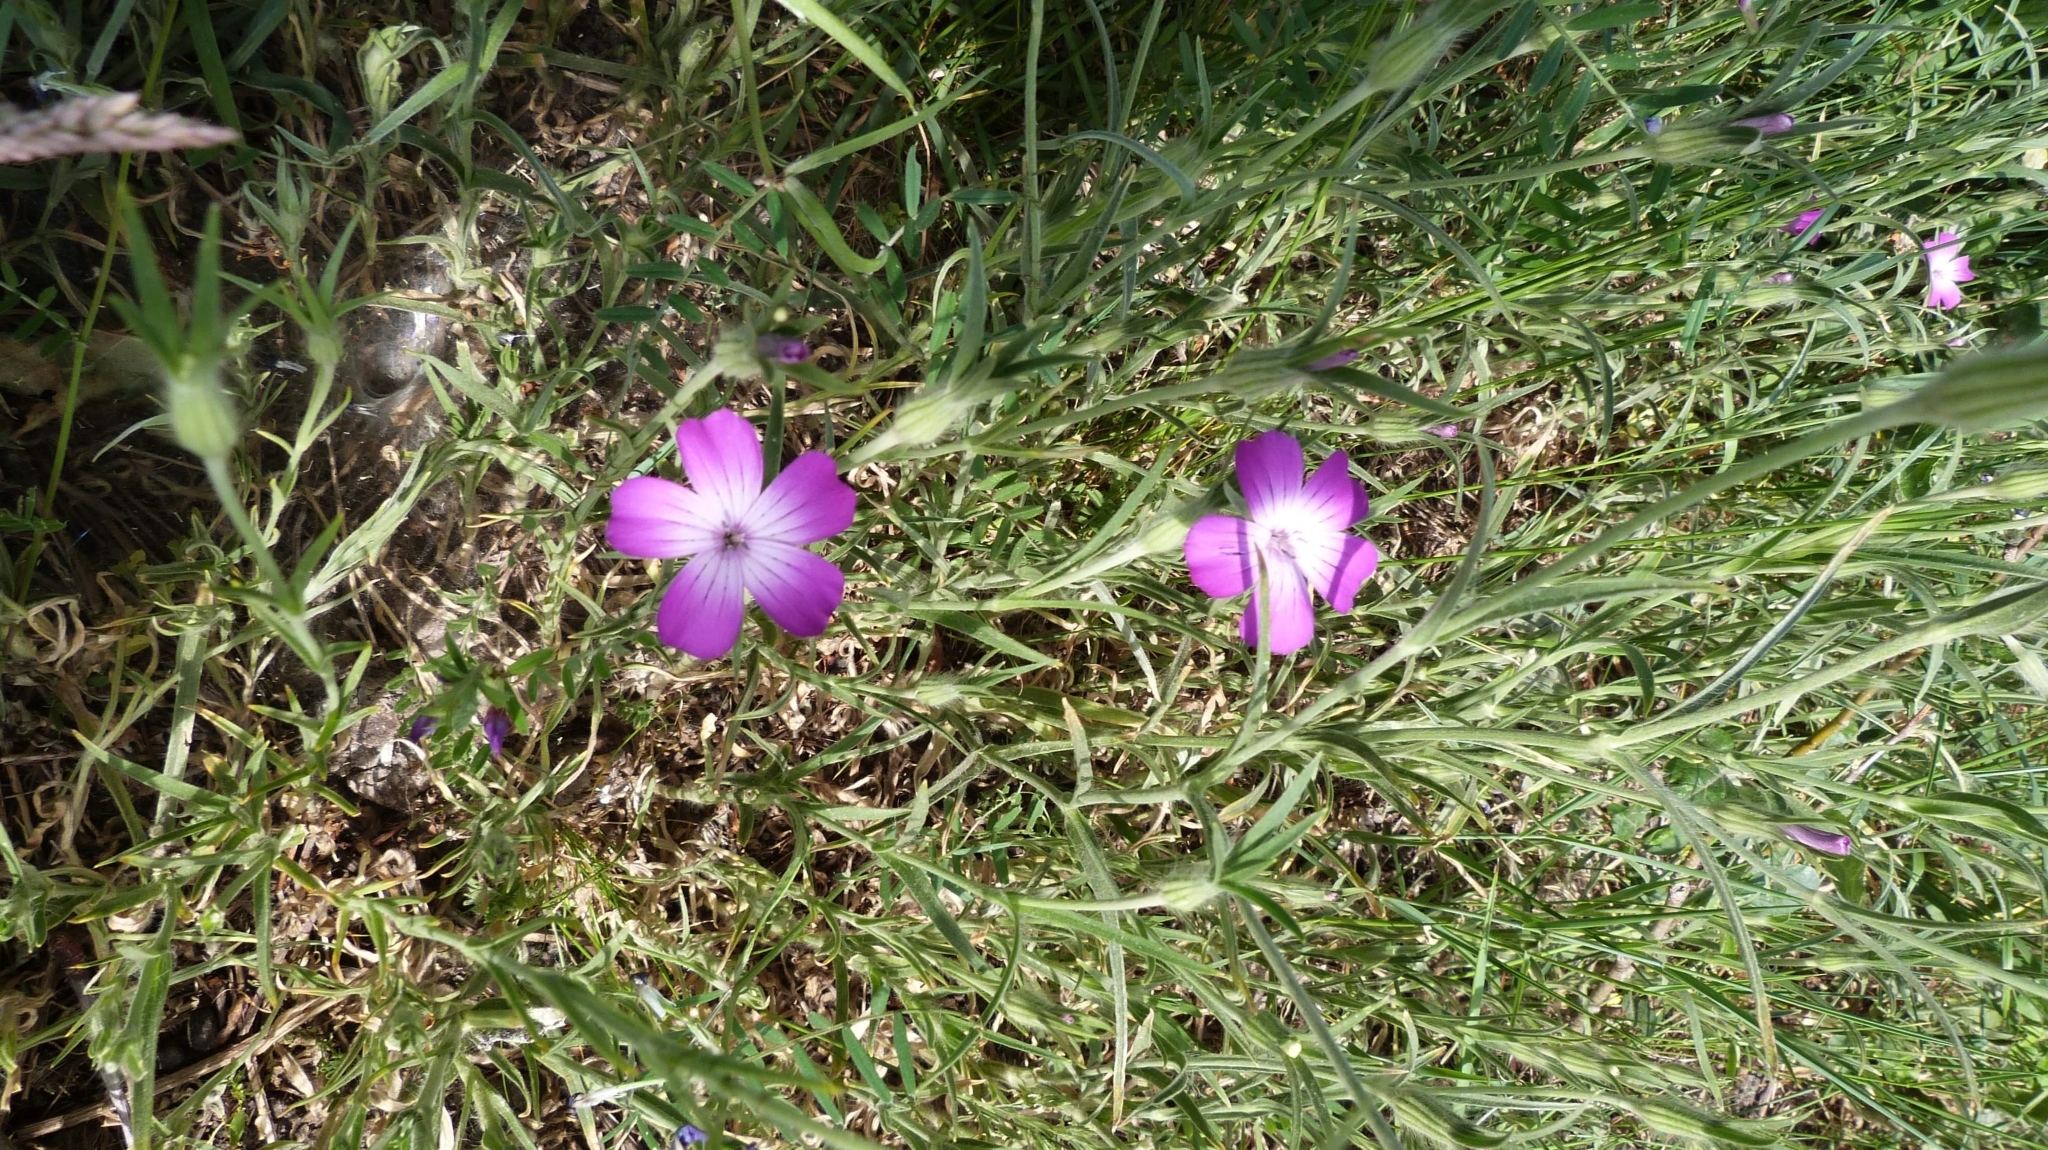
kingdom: Plantae
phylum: Tracheophyta
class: Magnoliopsida
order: Caryophyllales
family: Caryophyllaceae
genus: Agrostemma
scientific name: Agrostemma githago
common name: Common corncockle
